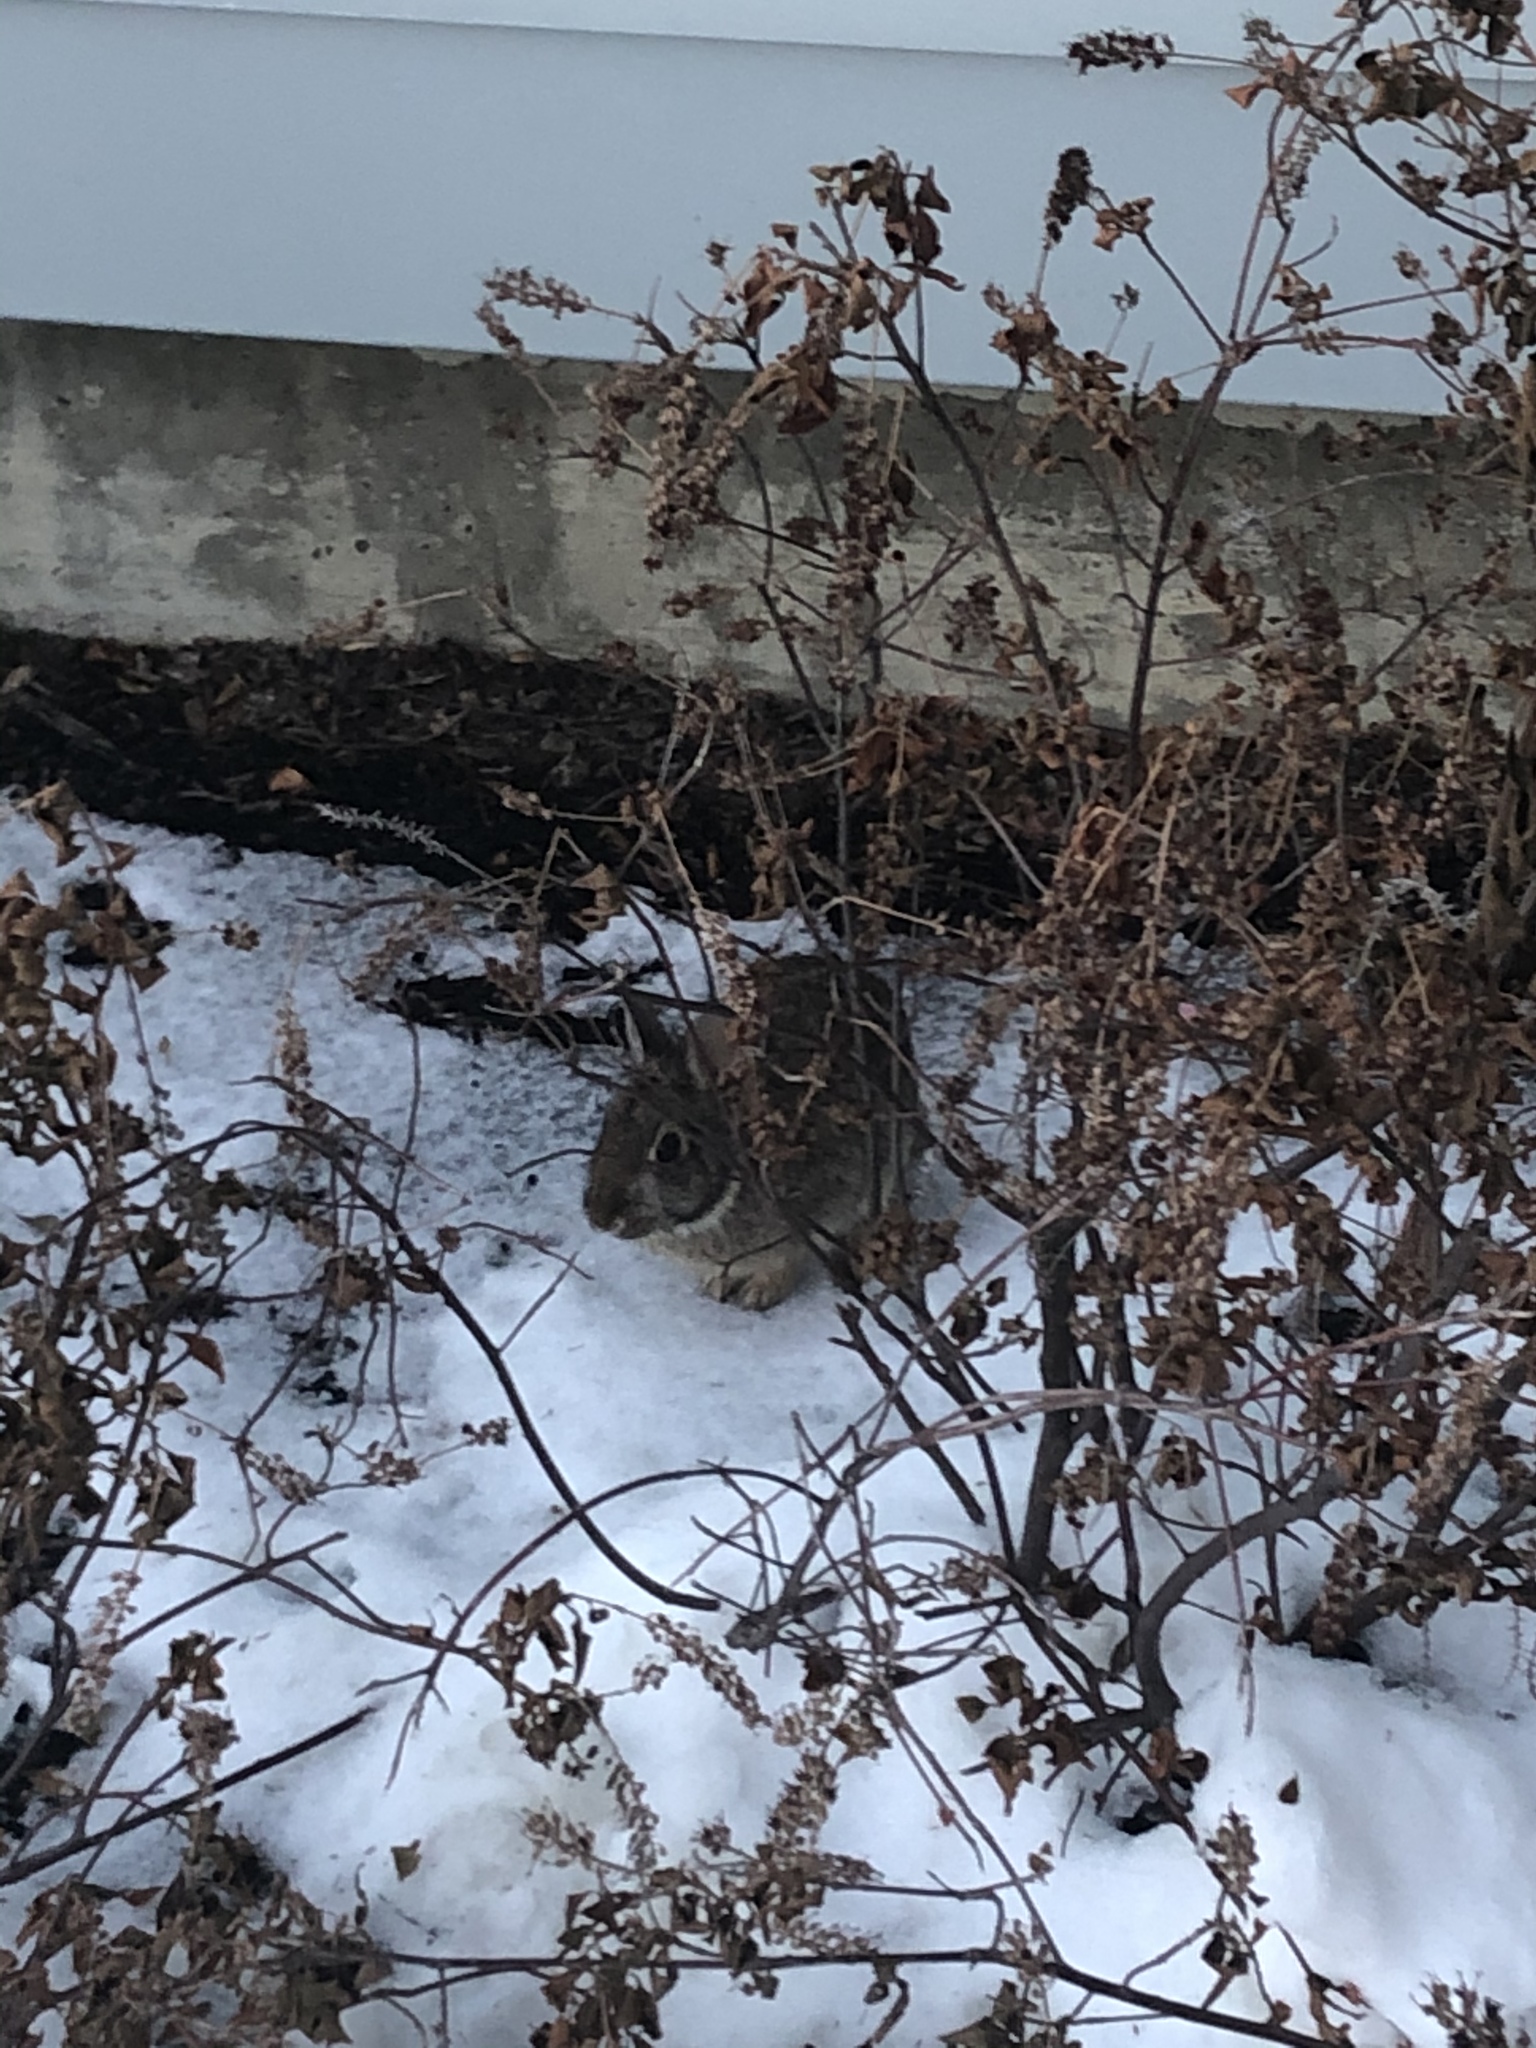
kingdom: Animalia
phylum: Chordata
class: Mammalia
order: Lagomorpha
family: Leporidae
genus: Sylvilagus
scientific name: Sylvilagus floridanus
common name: Eastern cottontail
